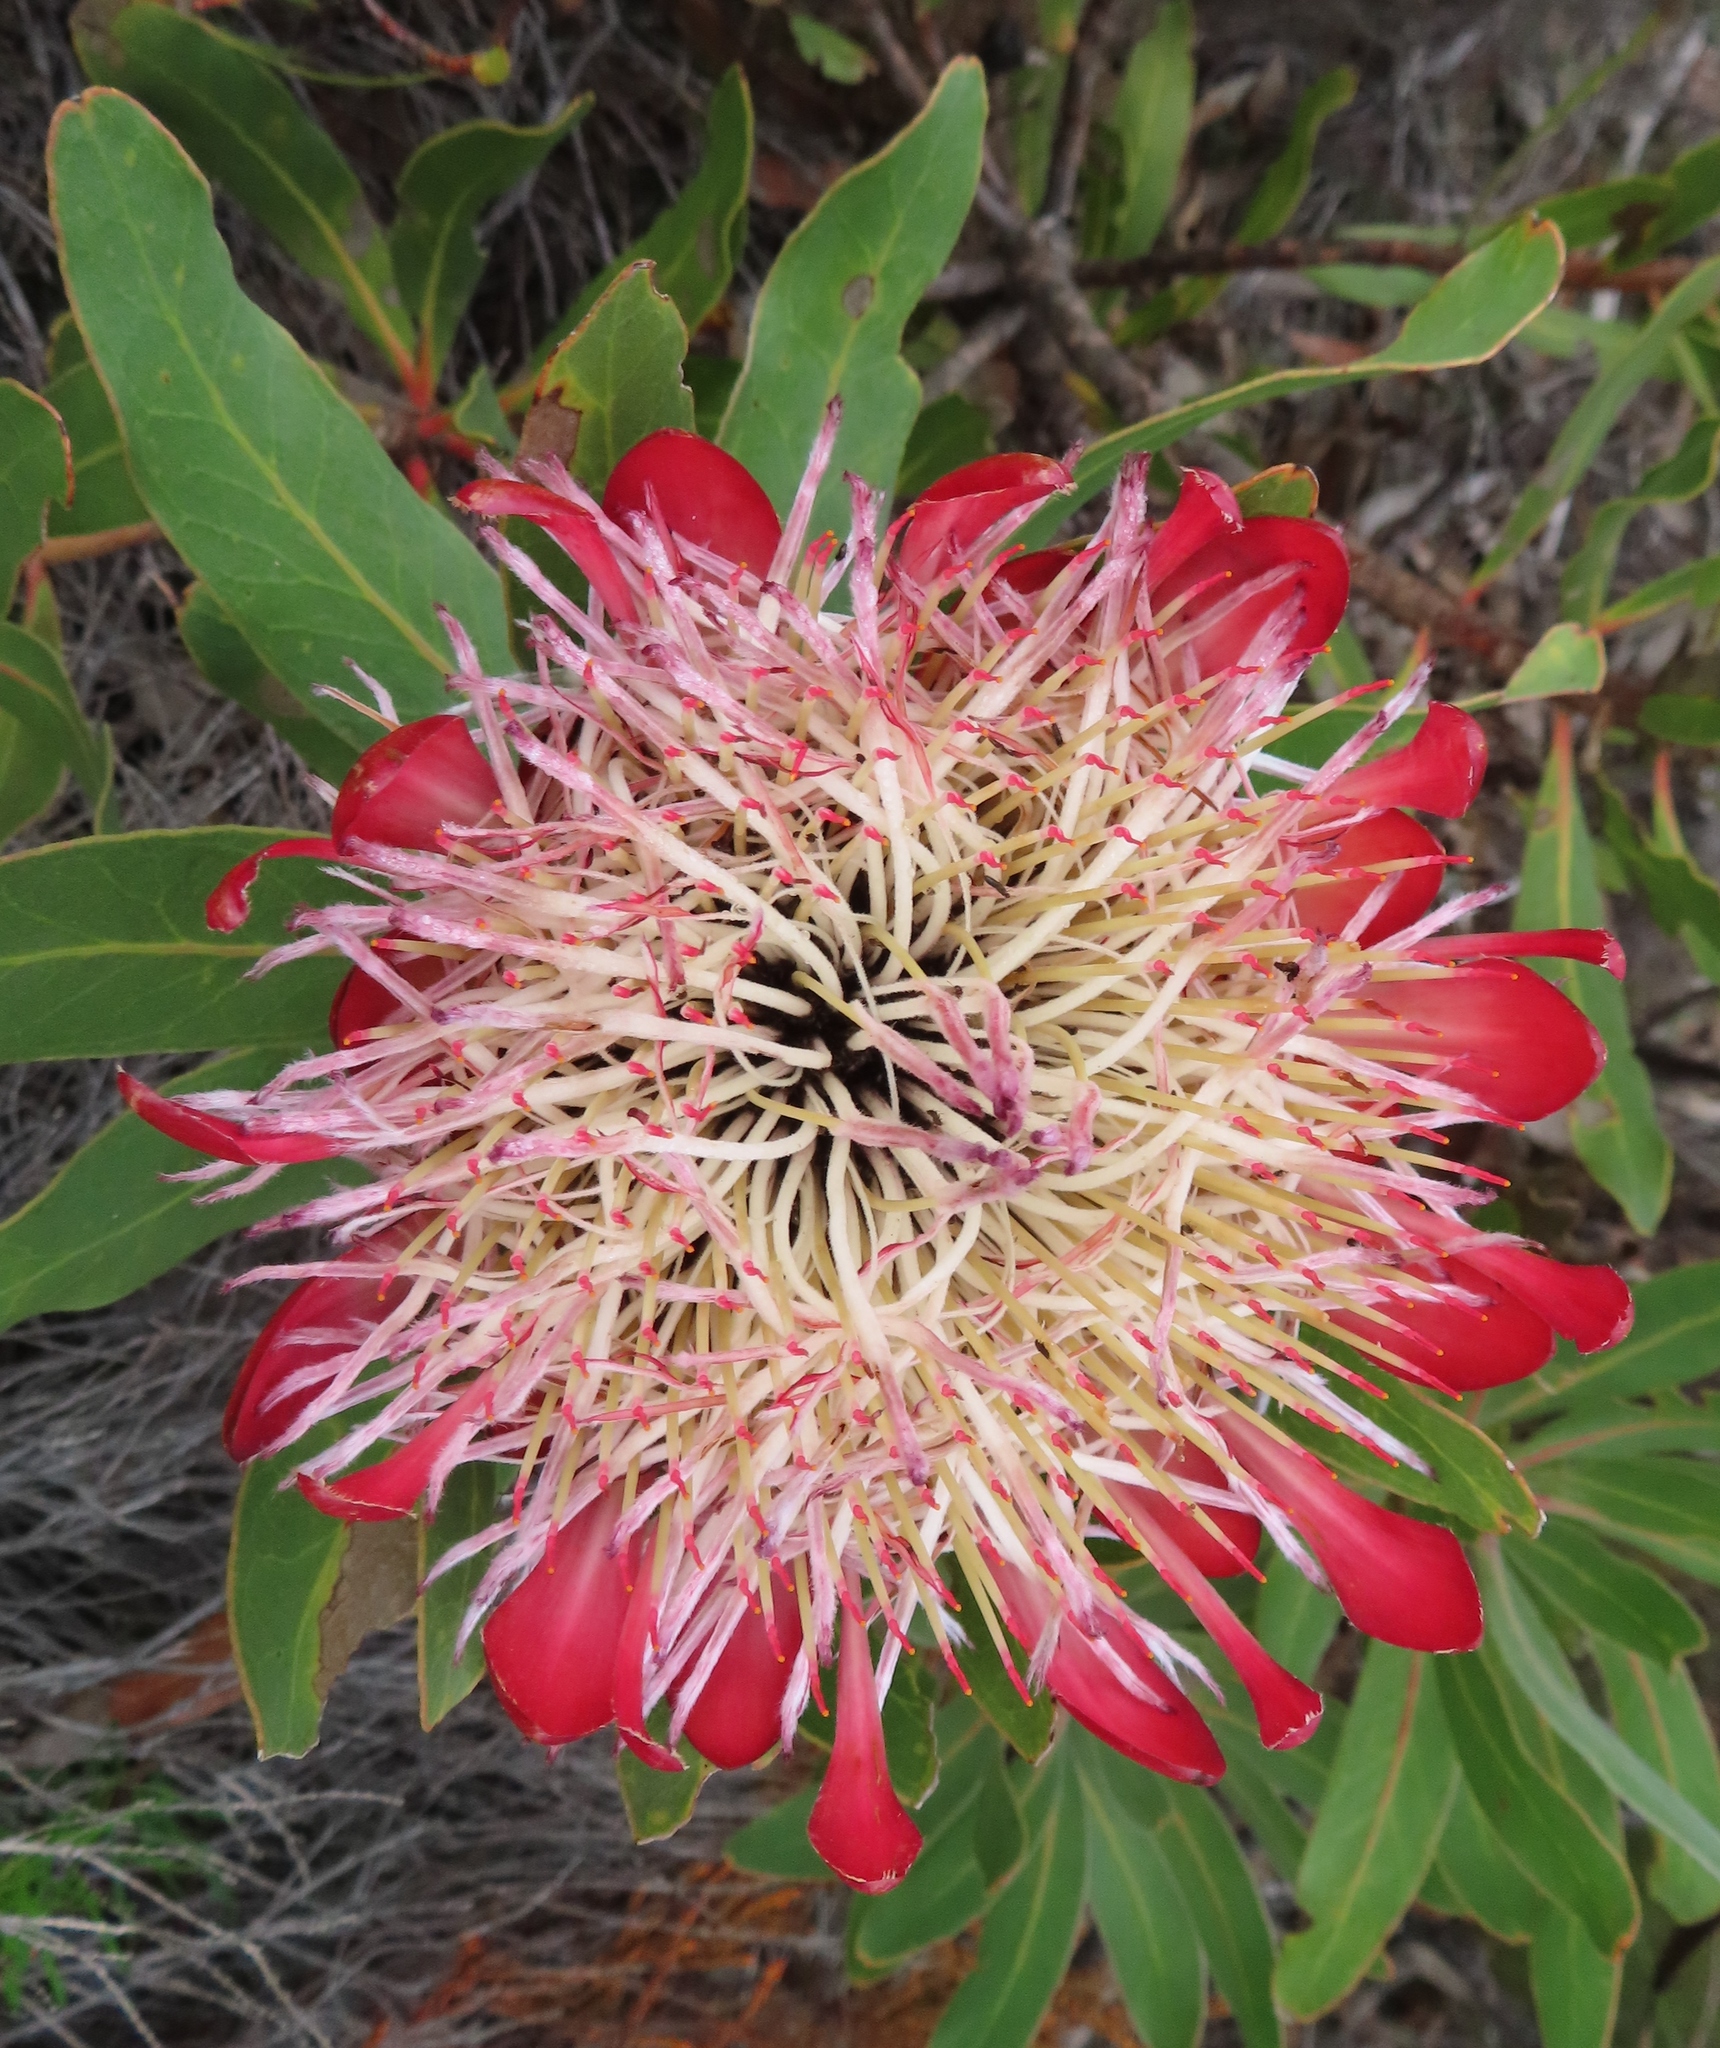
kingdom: Plantae
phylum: Tracheophyta
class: Magnoliopsida
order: Proteales
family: Proteaceae
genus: Protea
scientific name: Protea susannae
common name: Foetid-leaf sugarbush
